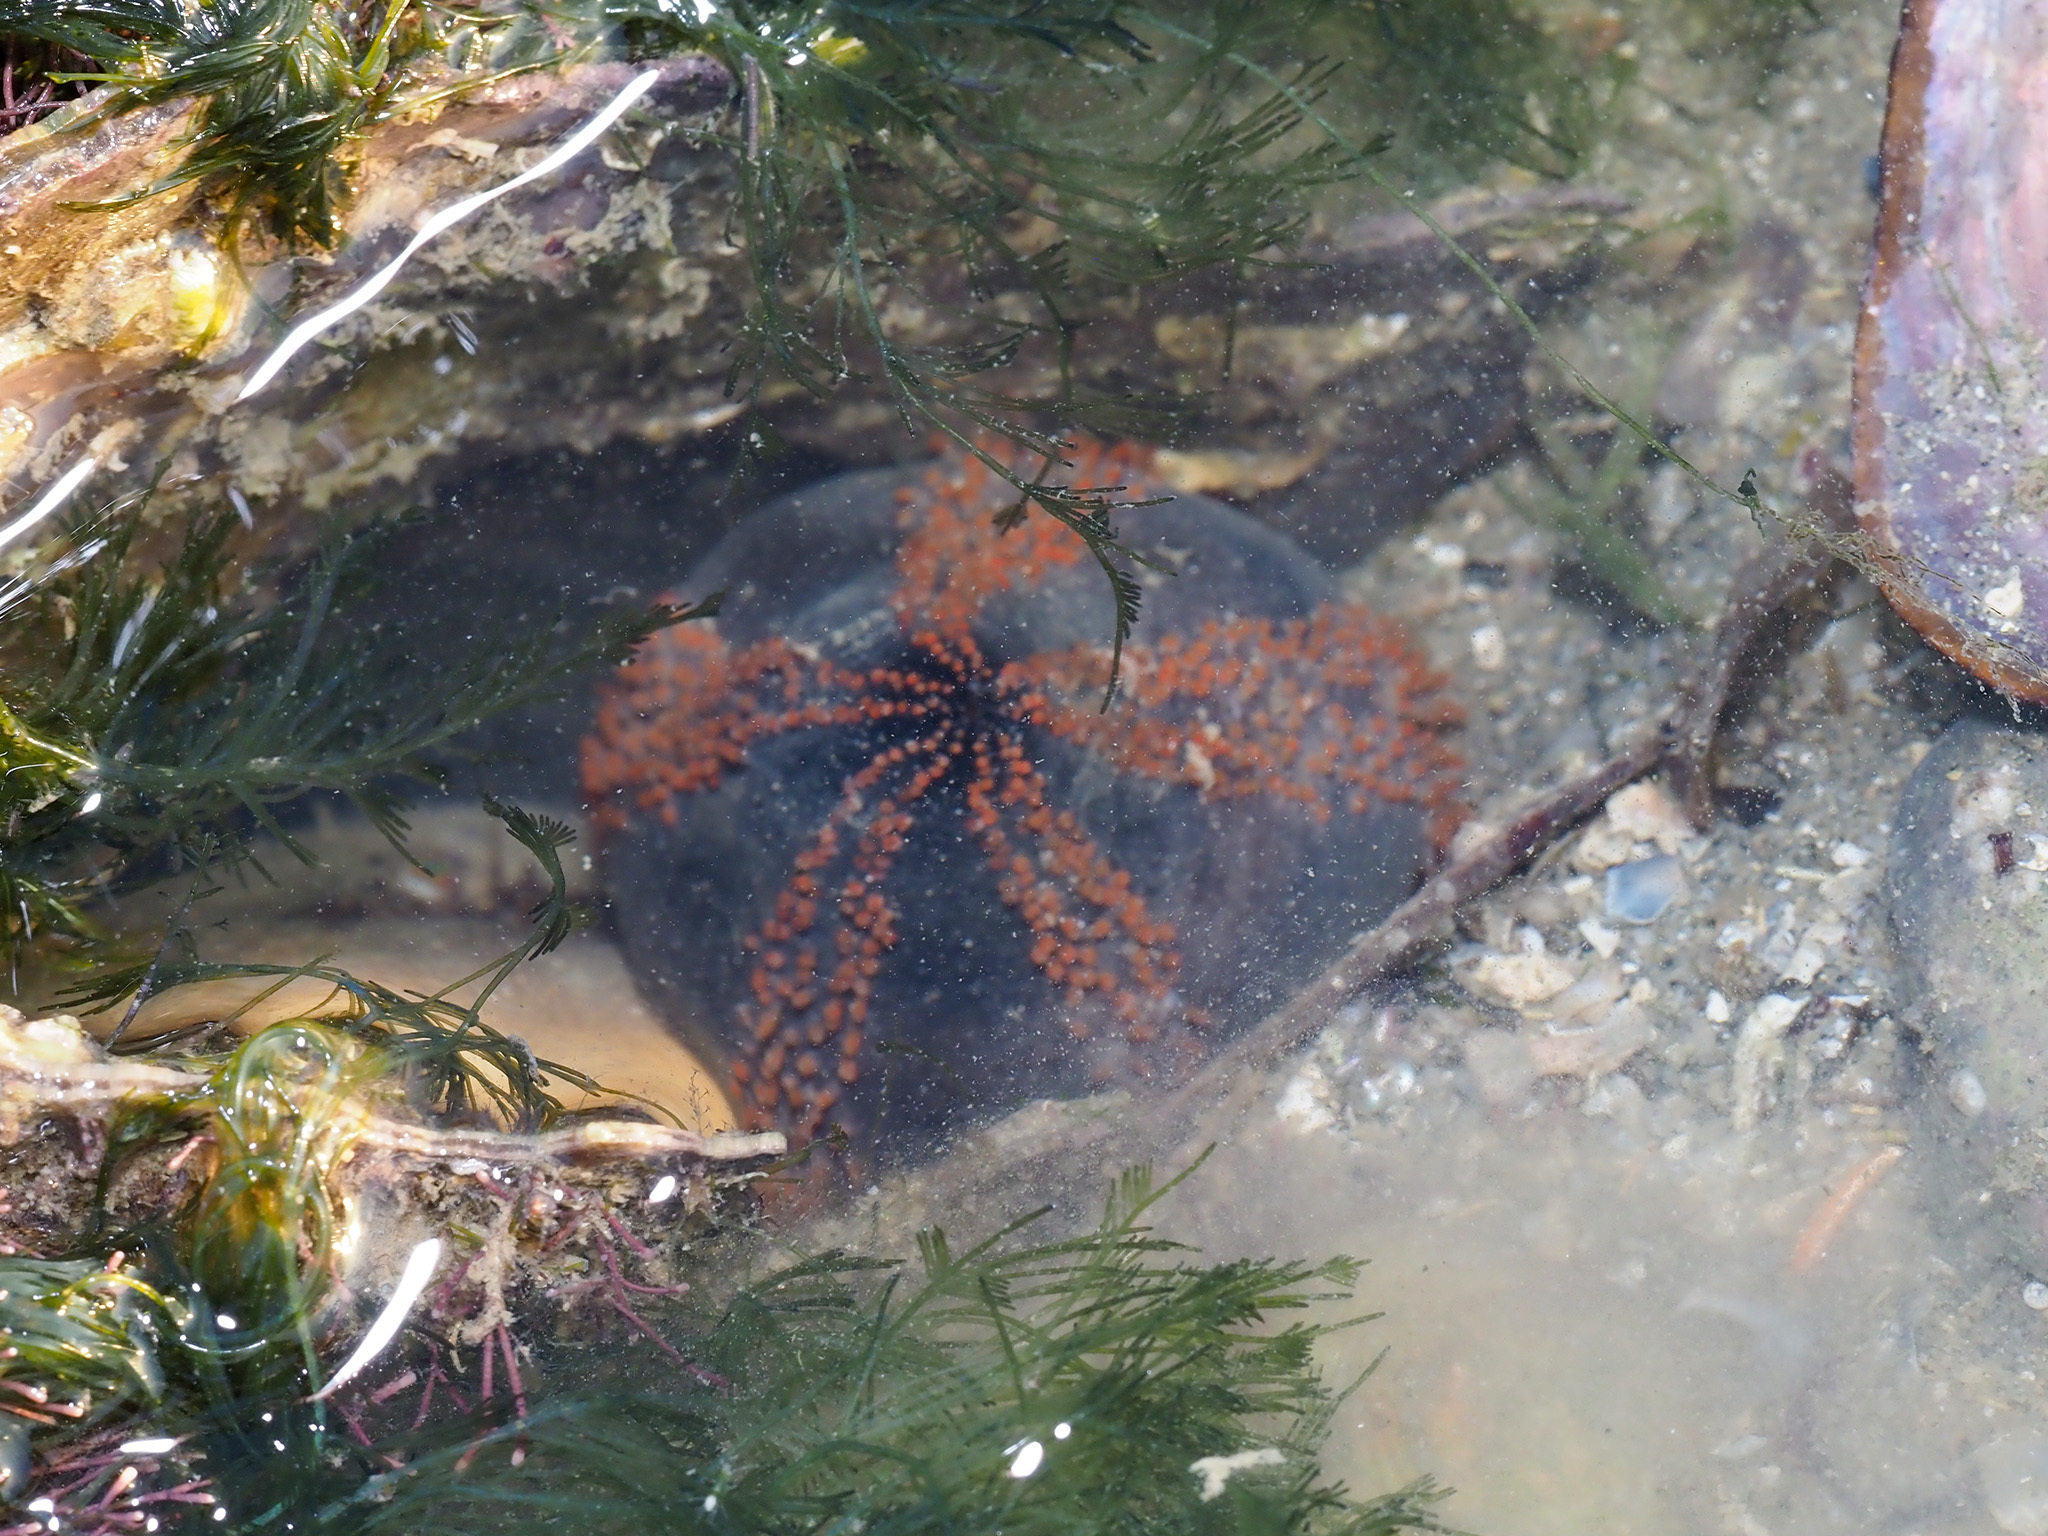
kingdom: Animalia
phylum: Echinodermata
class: Holothuroidea
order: Dendrochirotida
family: Cucumariidae
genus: Mensamaria
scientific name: Mensamaria intercedens
